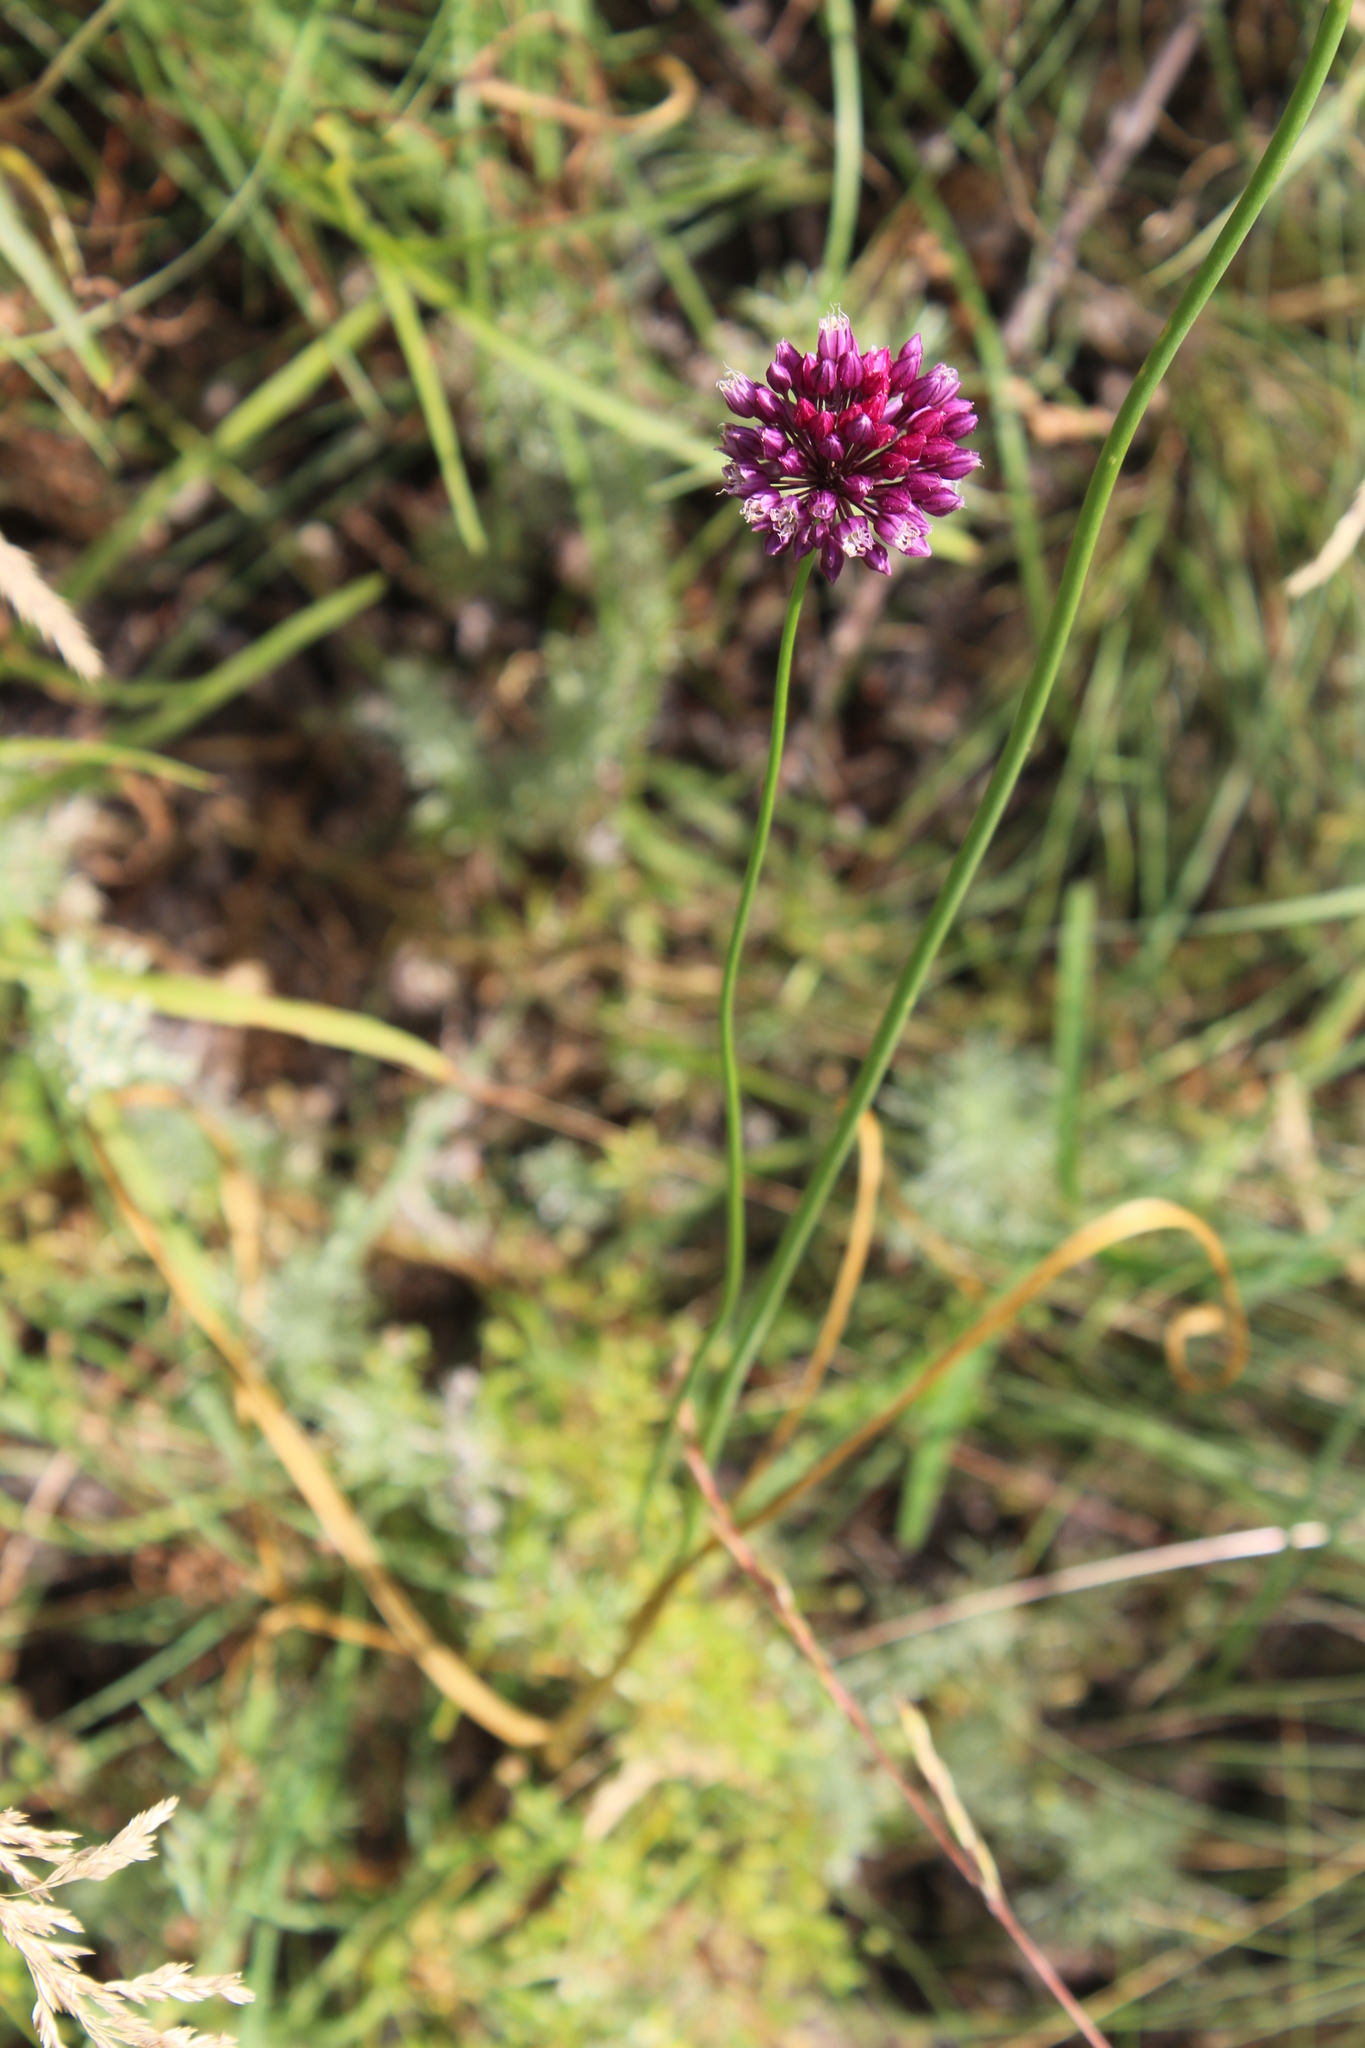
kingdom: Plantae
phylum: Tracheophyta
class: Liliopsida
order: Asparagales
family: Amaryllidaceae
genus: Allium
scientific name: Allium rotundum
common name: Sand leek
